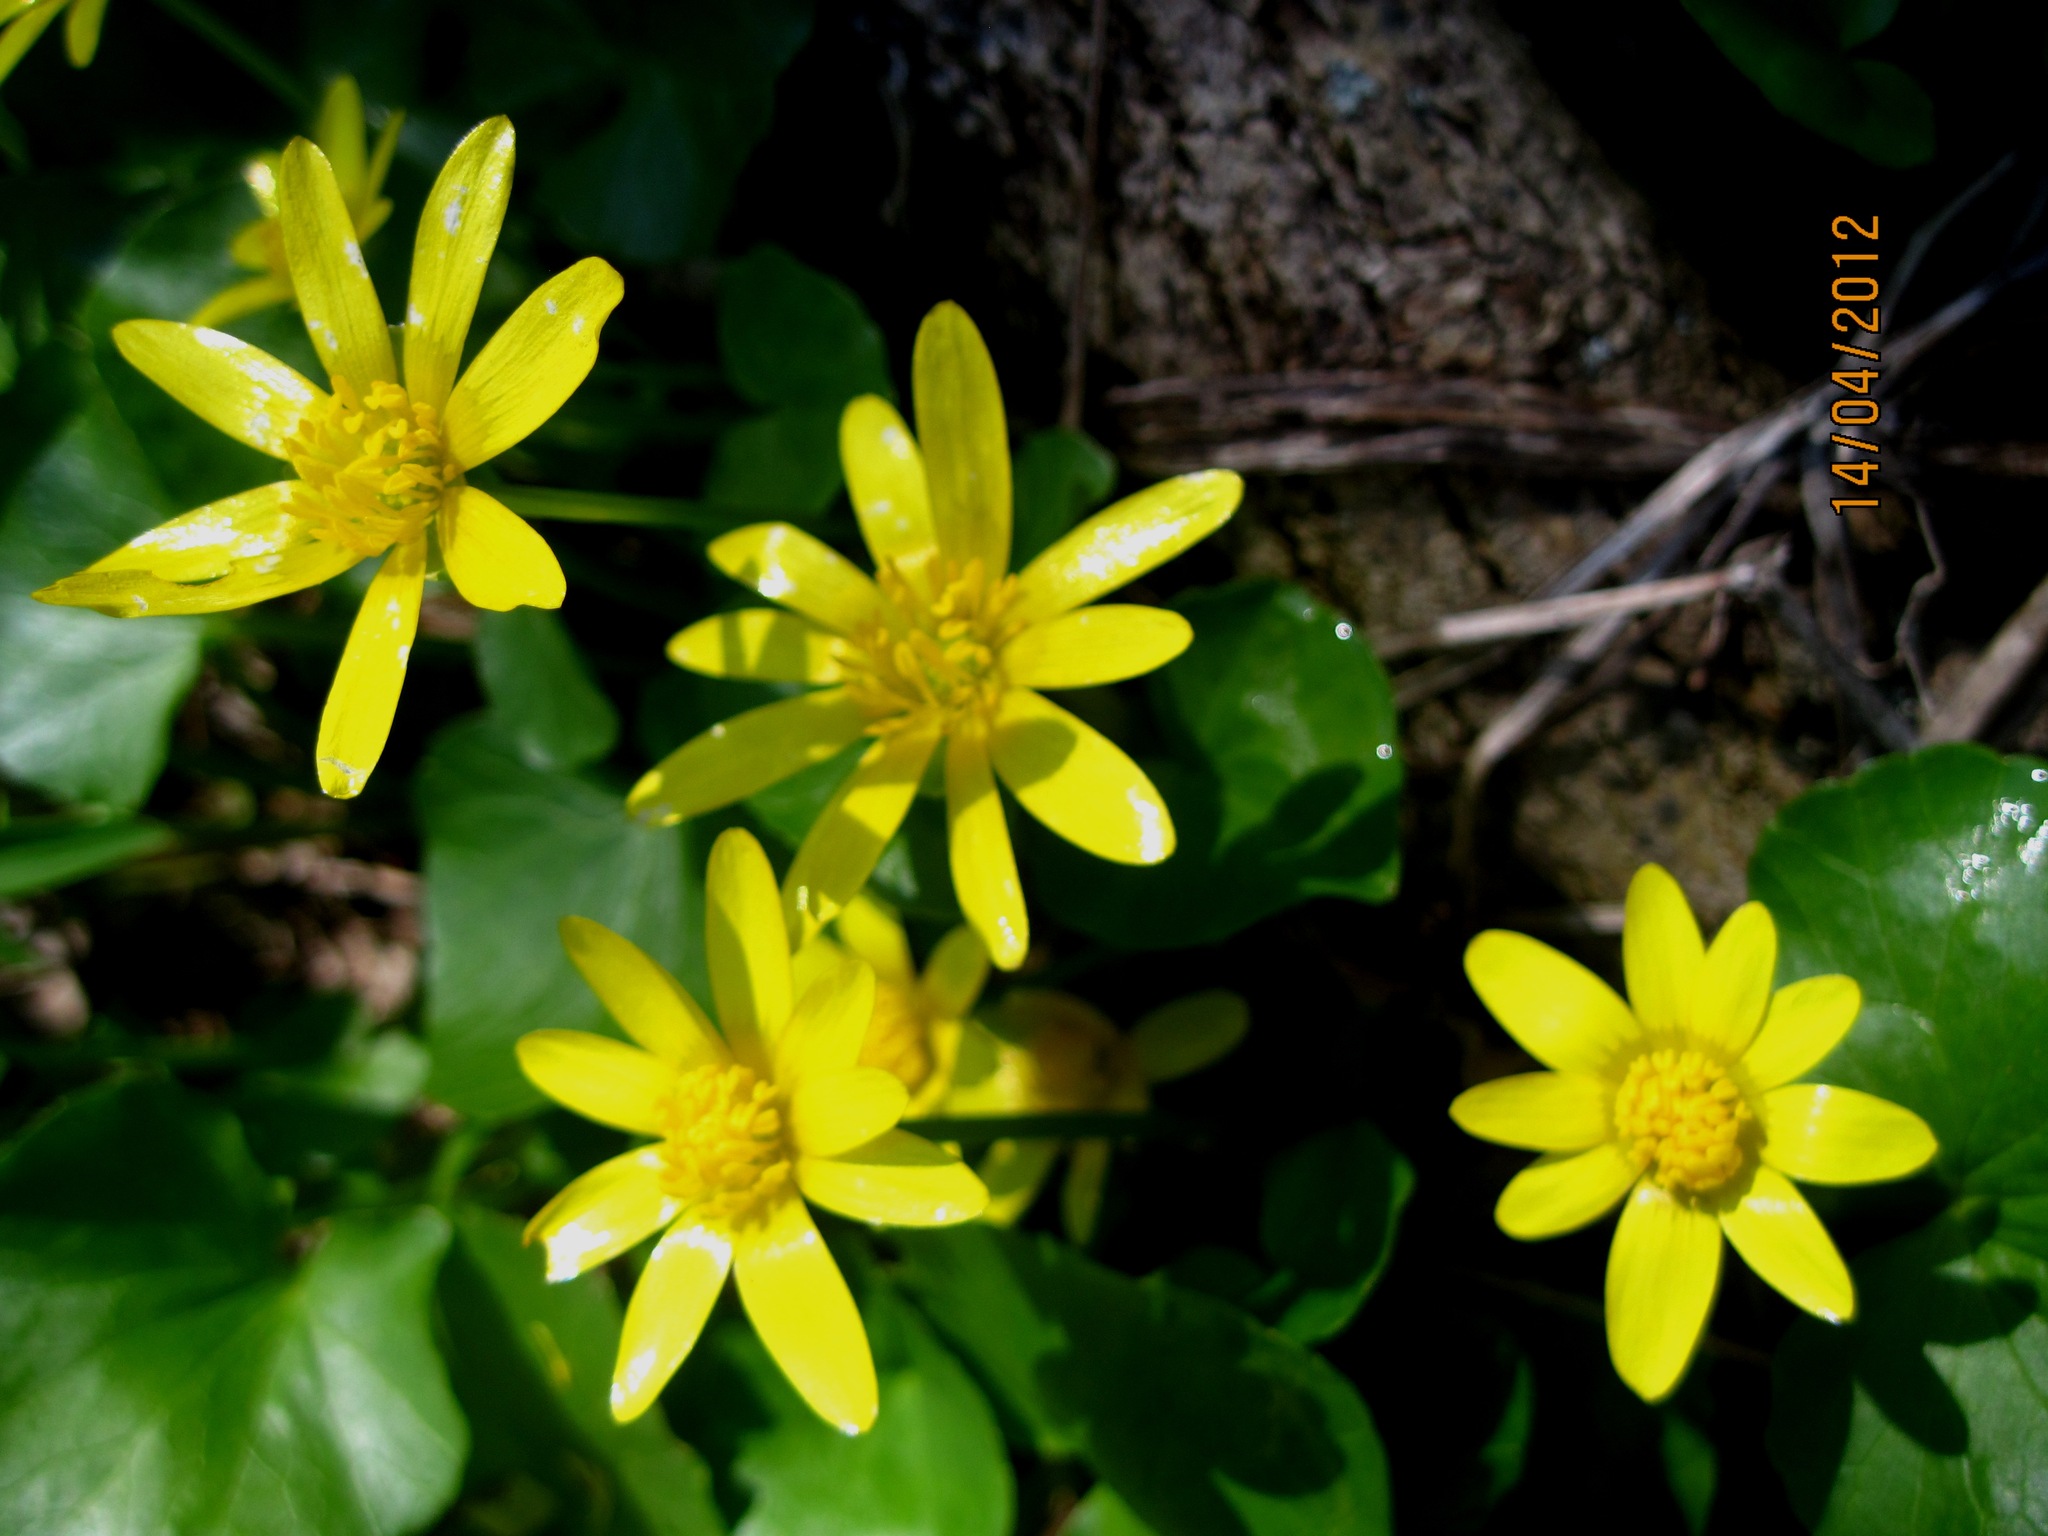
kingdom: Plantae
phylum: Tracheophyta
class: Magnoliopsida
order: Ranunculales
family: Ranunculaceae
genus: Ficaria
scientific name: Ficaria verna
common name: Lesser celandine
